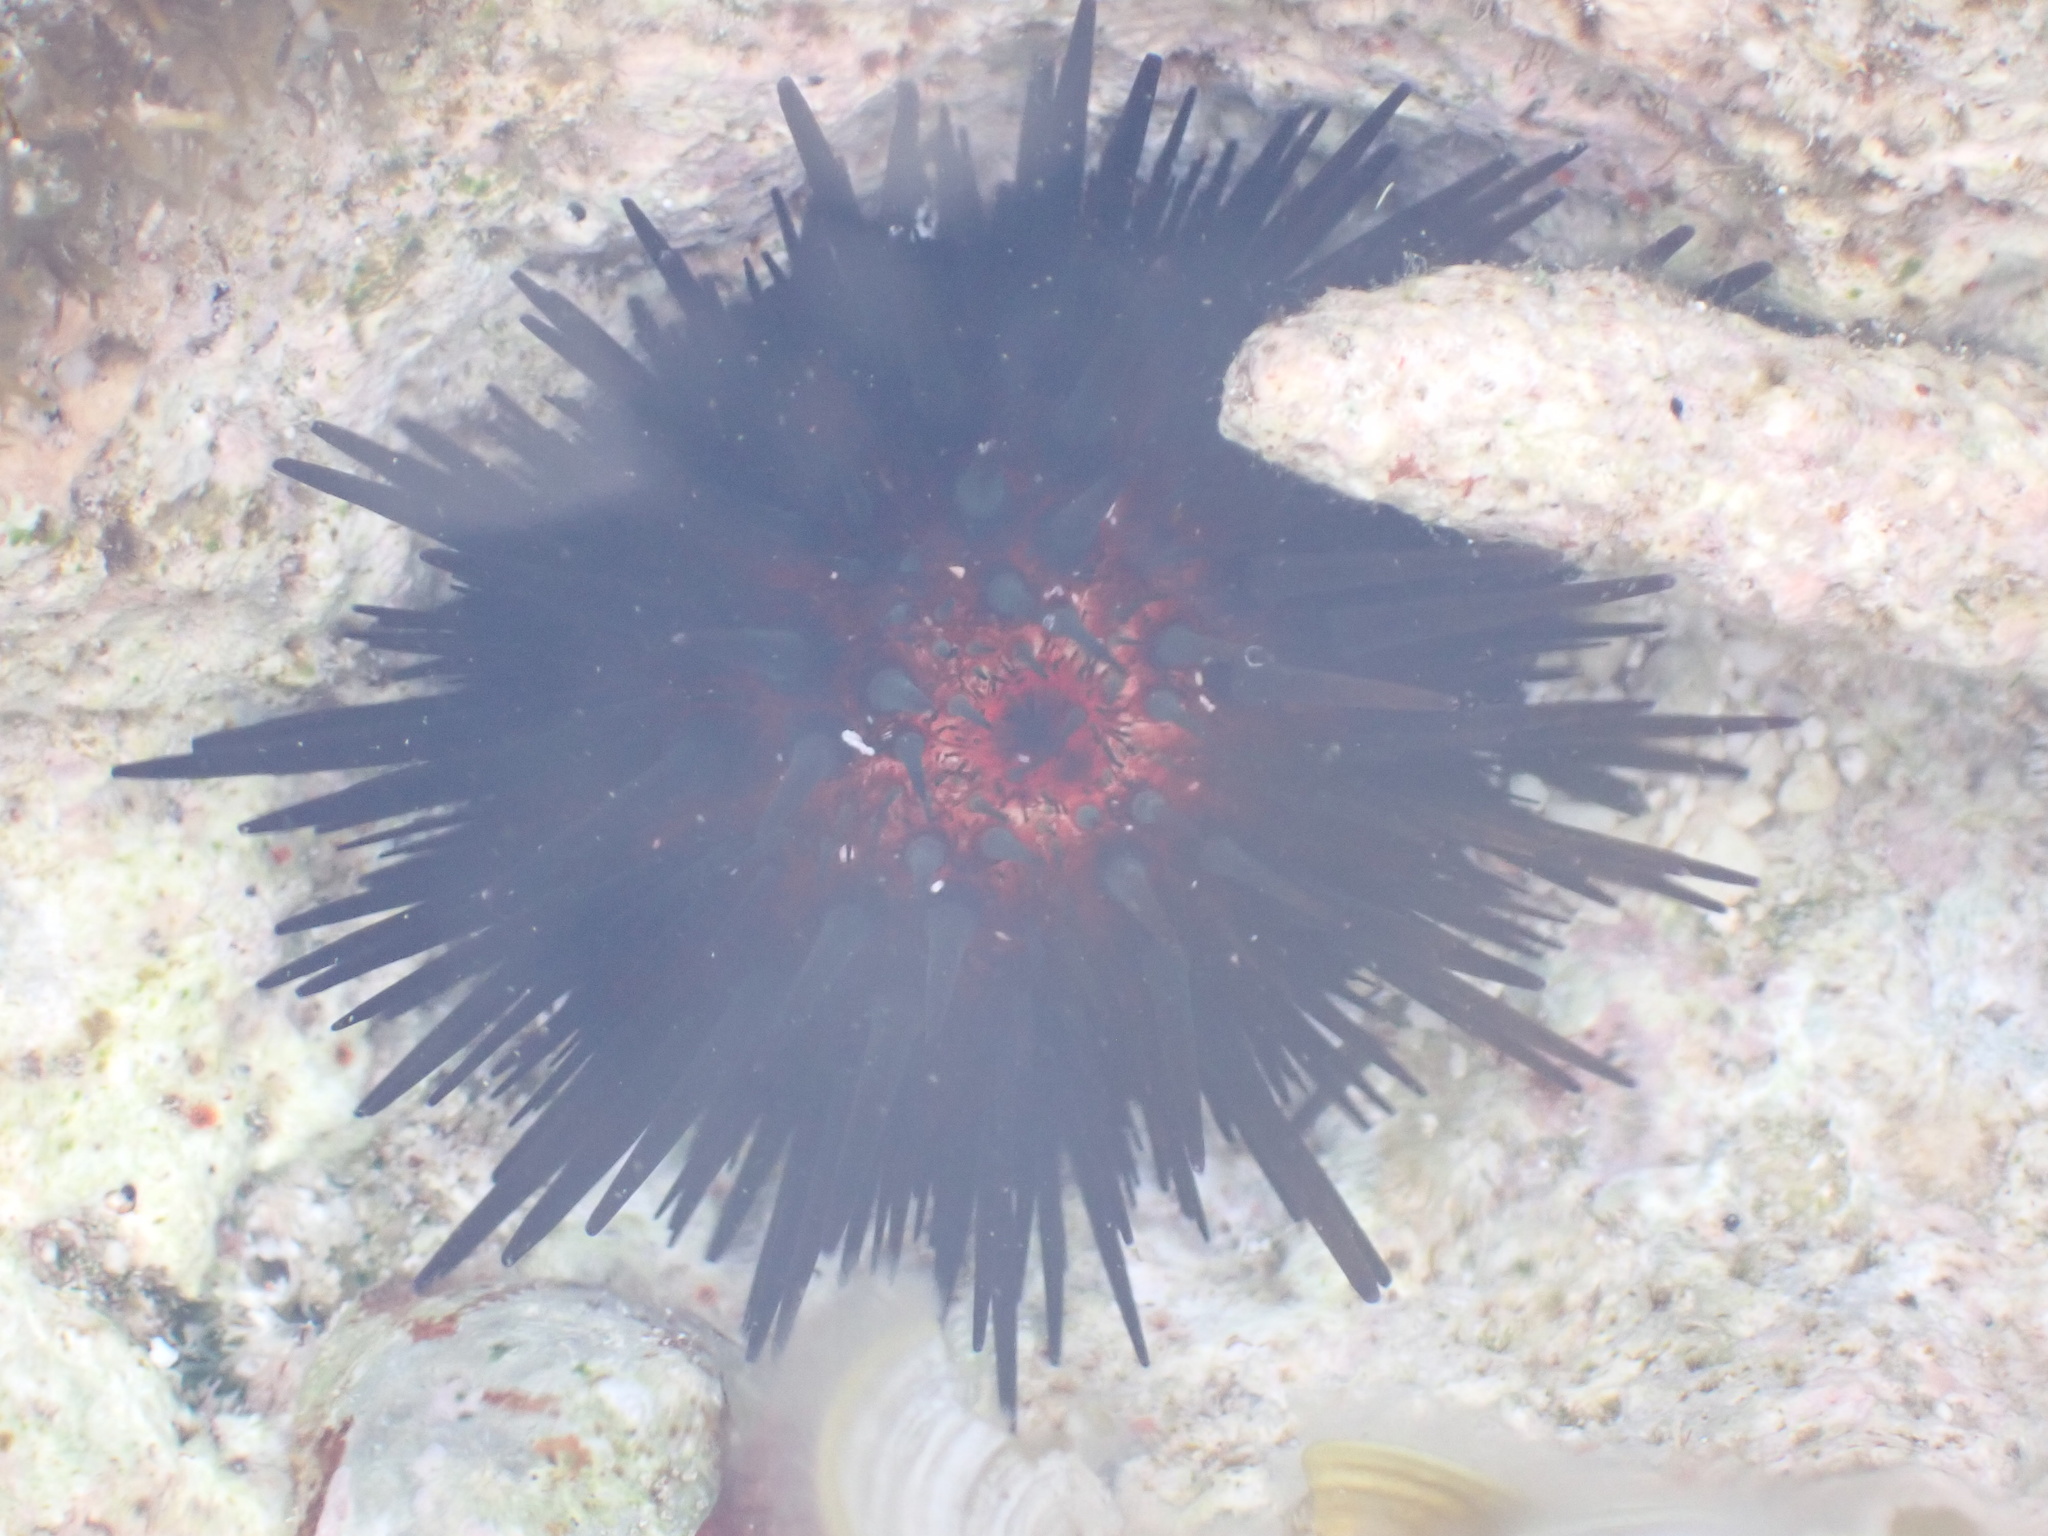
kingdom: Animalia
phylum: Echinodermata
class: Echinoidea
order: Camarodonta
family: Echinometridae
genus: Echinometra
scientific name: Echinometra lucunter
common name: Rock urchin
